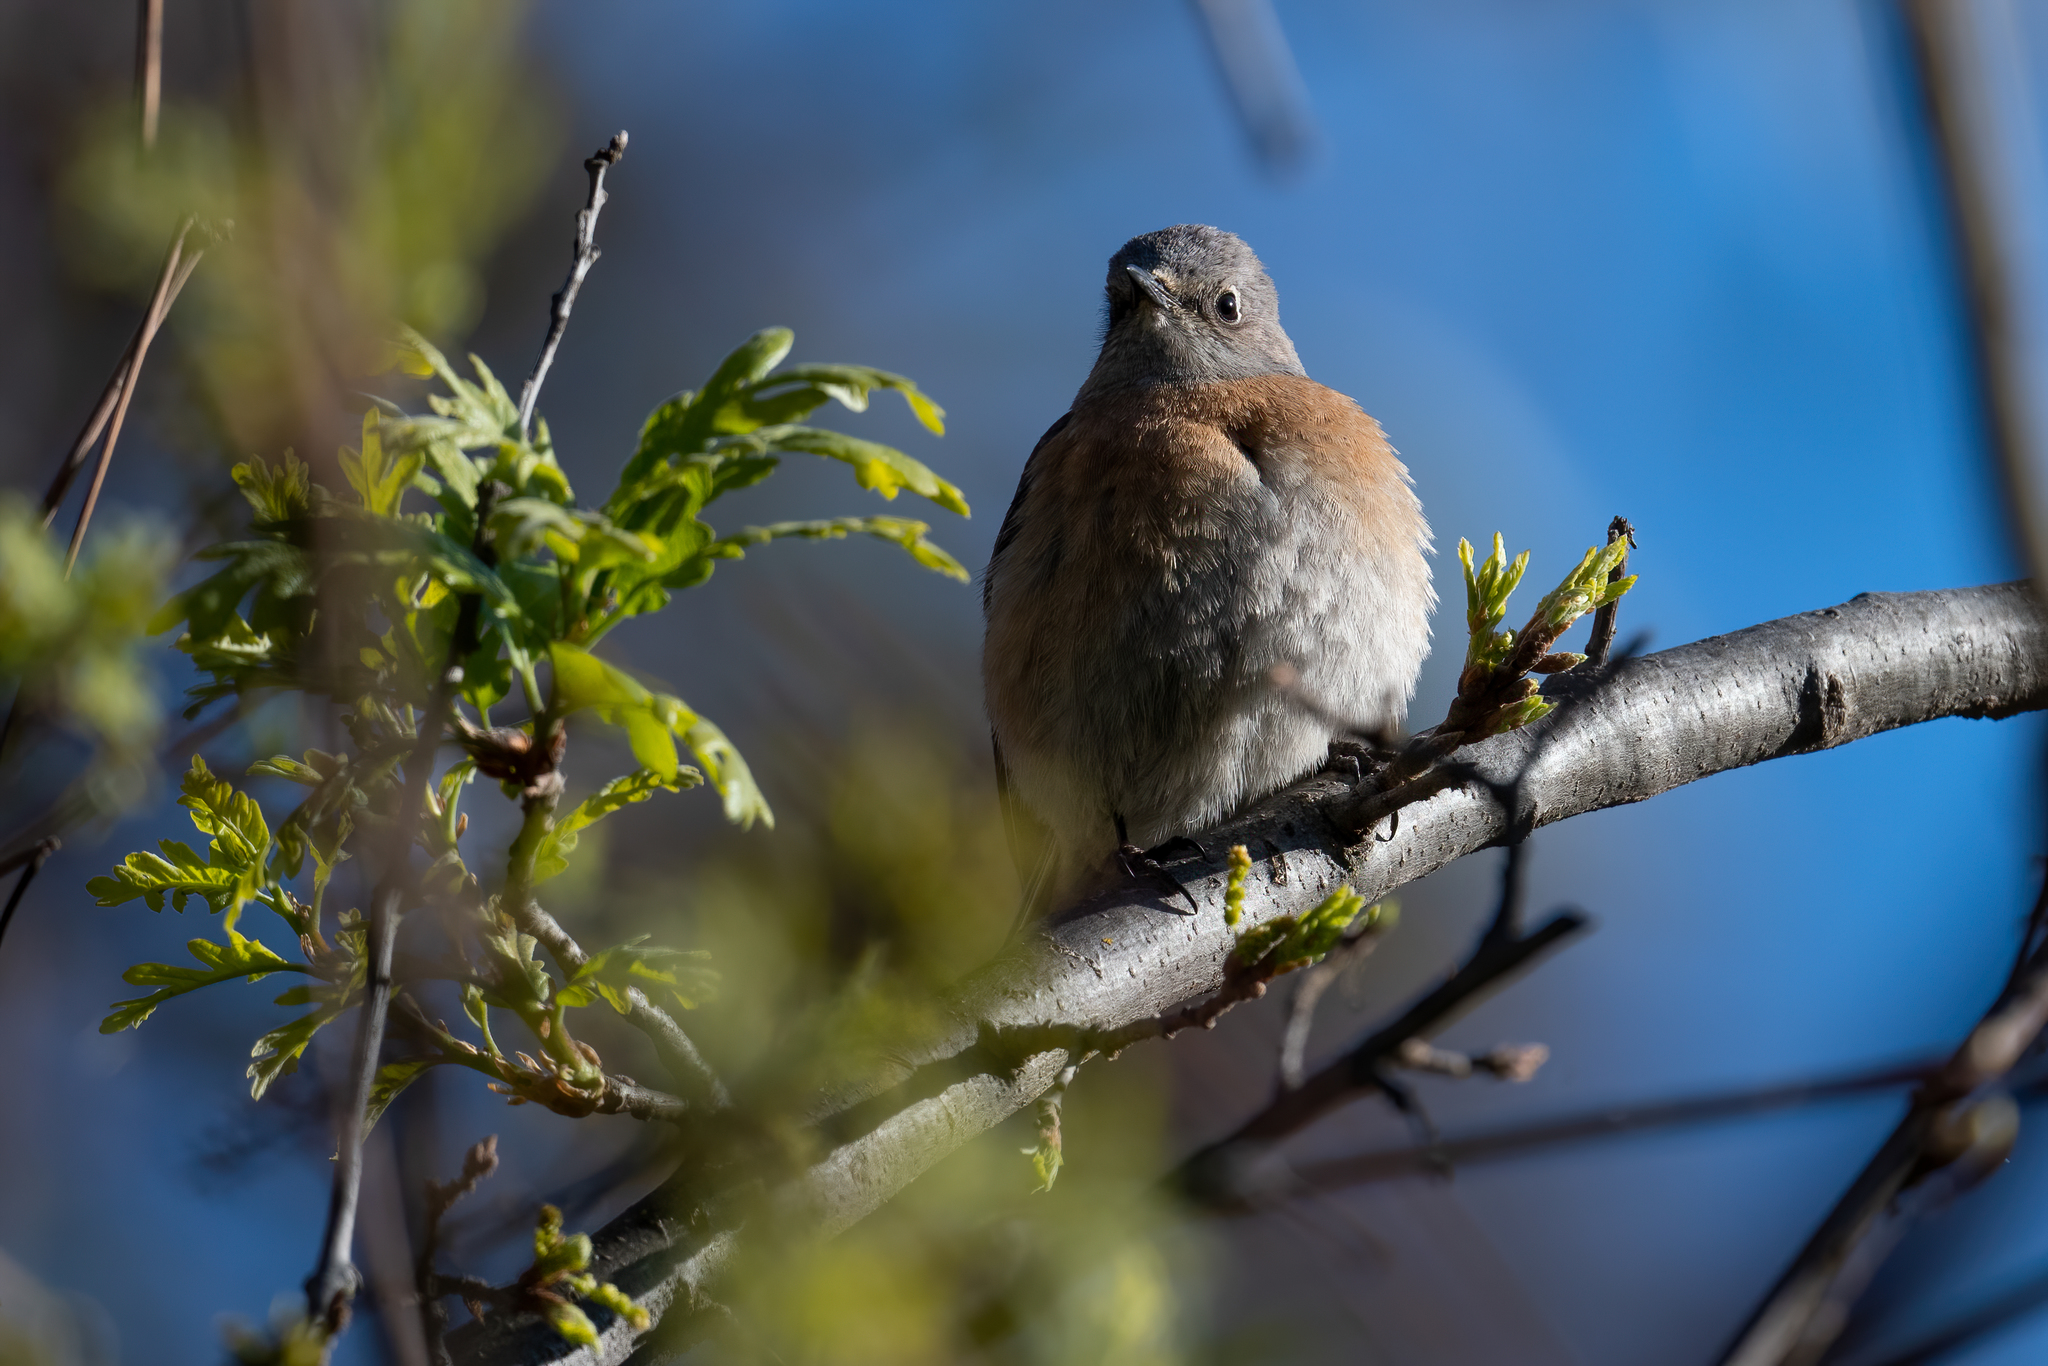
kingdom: Animalia
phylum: Chordata
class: Aves
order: Passeriformes
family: Turdidae
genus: Sialia
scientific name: Sialia mexicana
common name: Western bluebird
